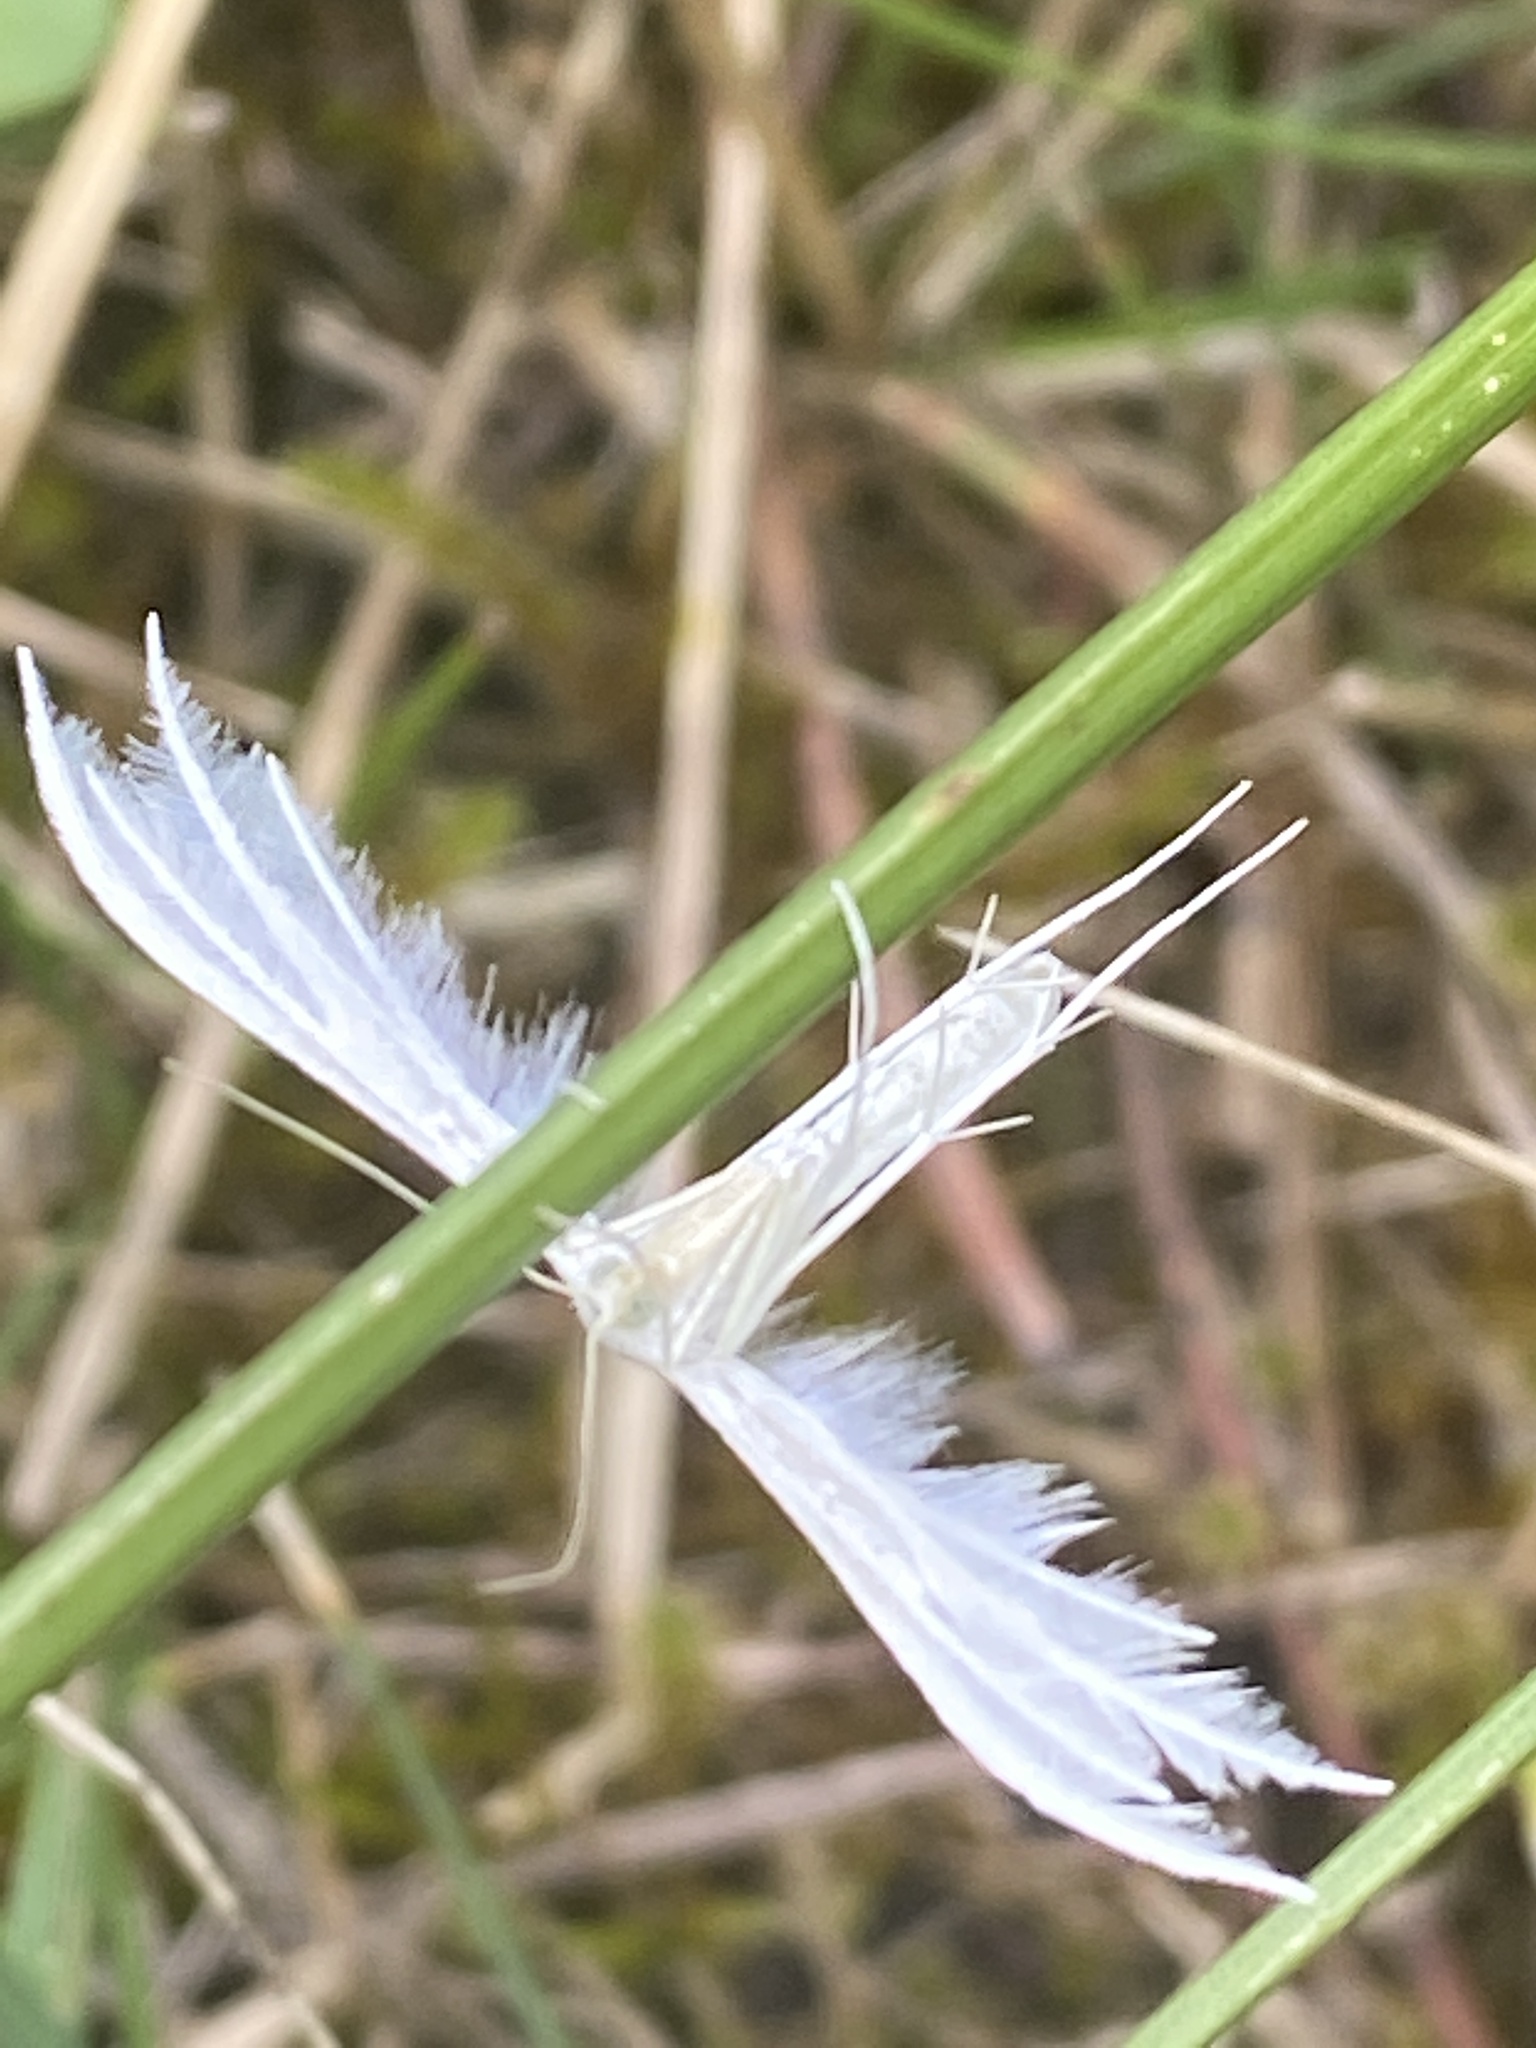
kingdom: Animalia
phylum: Arthropoda
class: Insecta
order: Lepidoptera
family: Pterophoridae
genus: Pterophorus
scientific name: Pterophorus pentadactyla
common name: White plume moth
